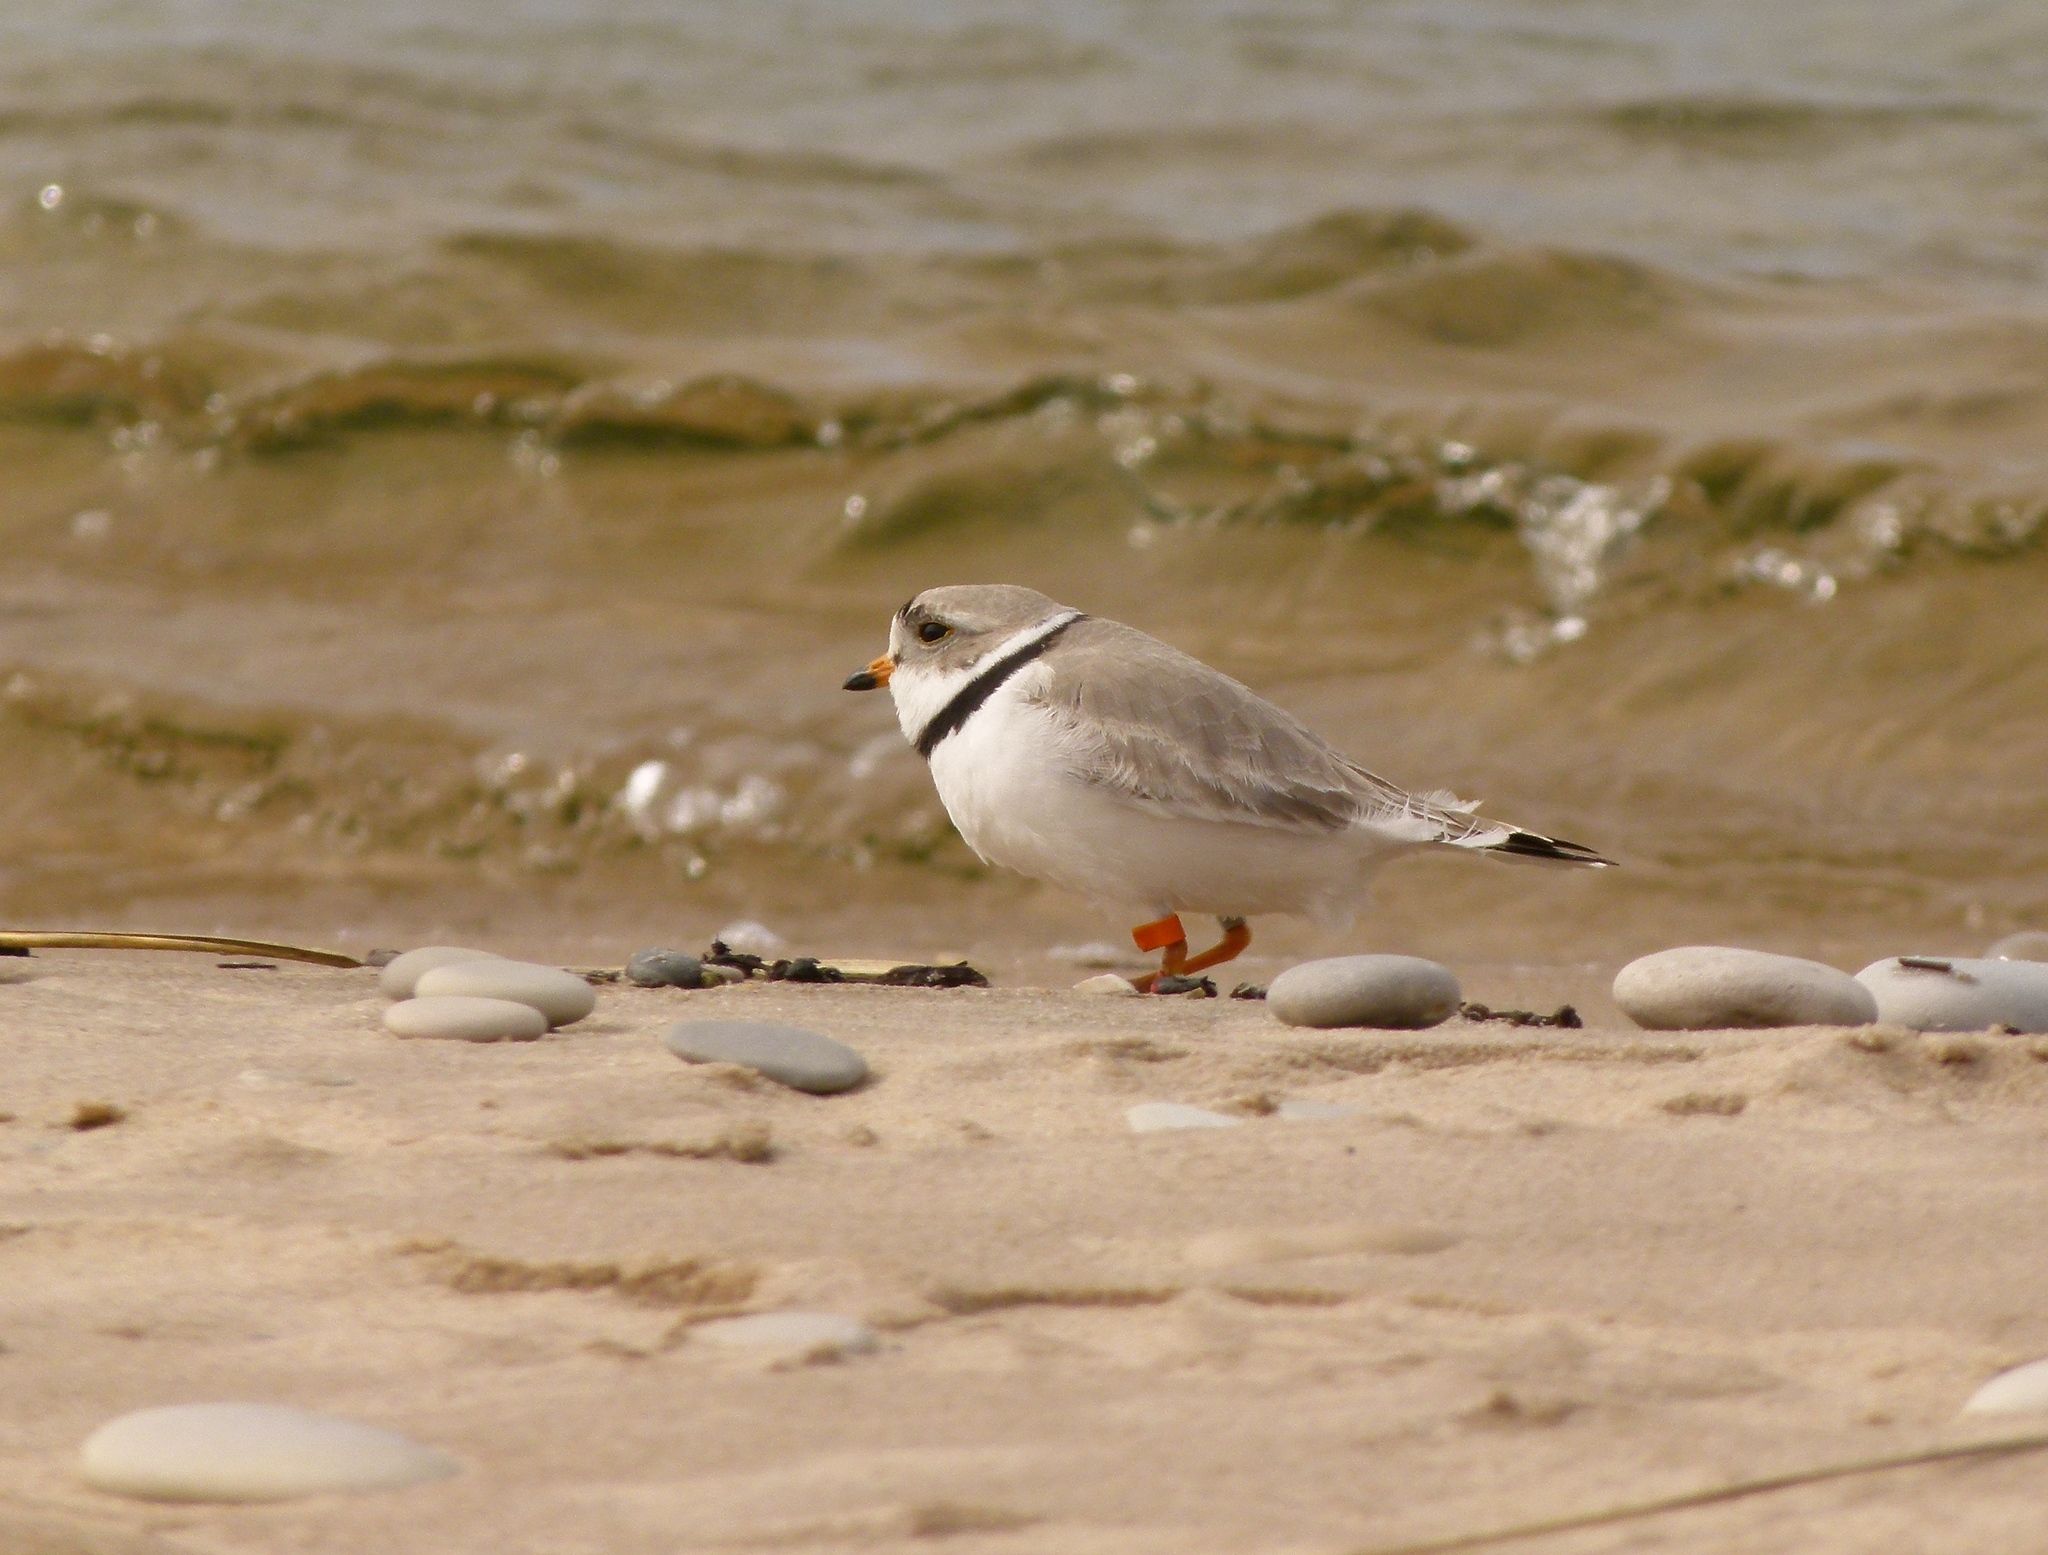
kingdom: Animalia
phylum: Chordata
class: Aves
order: Charadriiformes
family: Charadriidae
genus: Charadrius
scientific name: Charadrius melodus
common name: Piping plover
